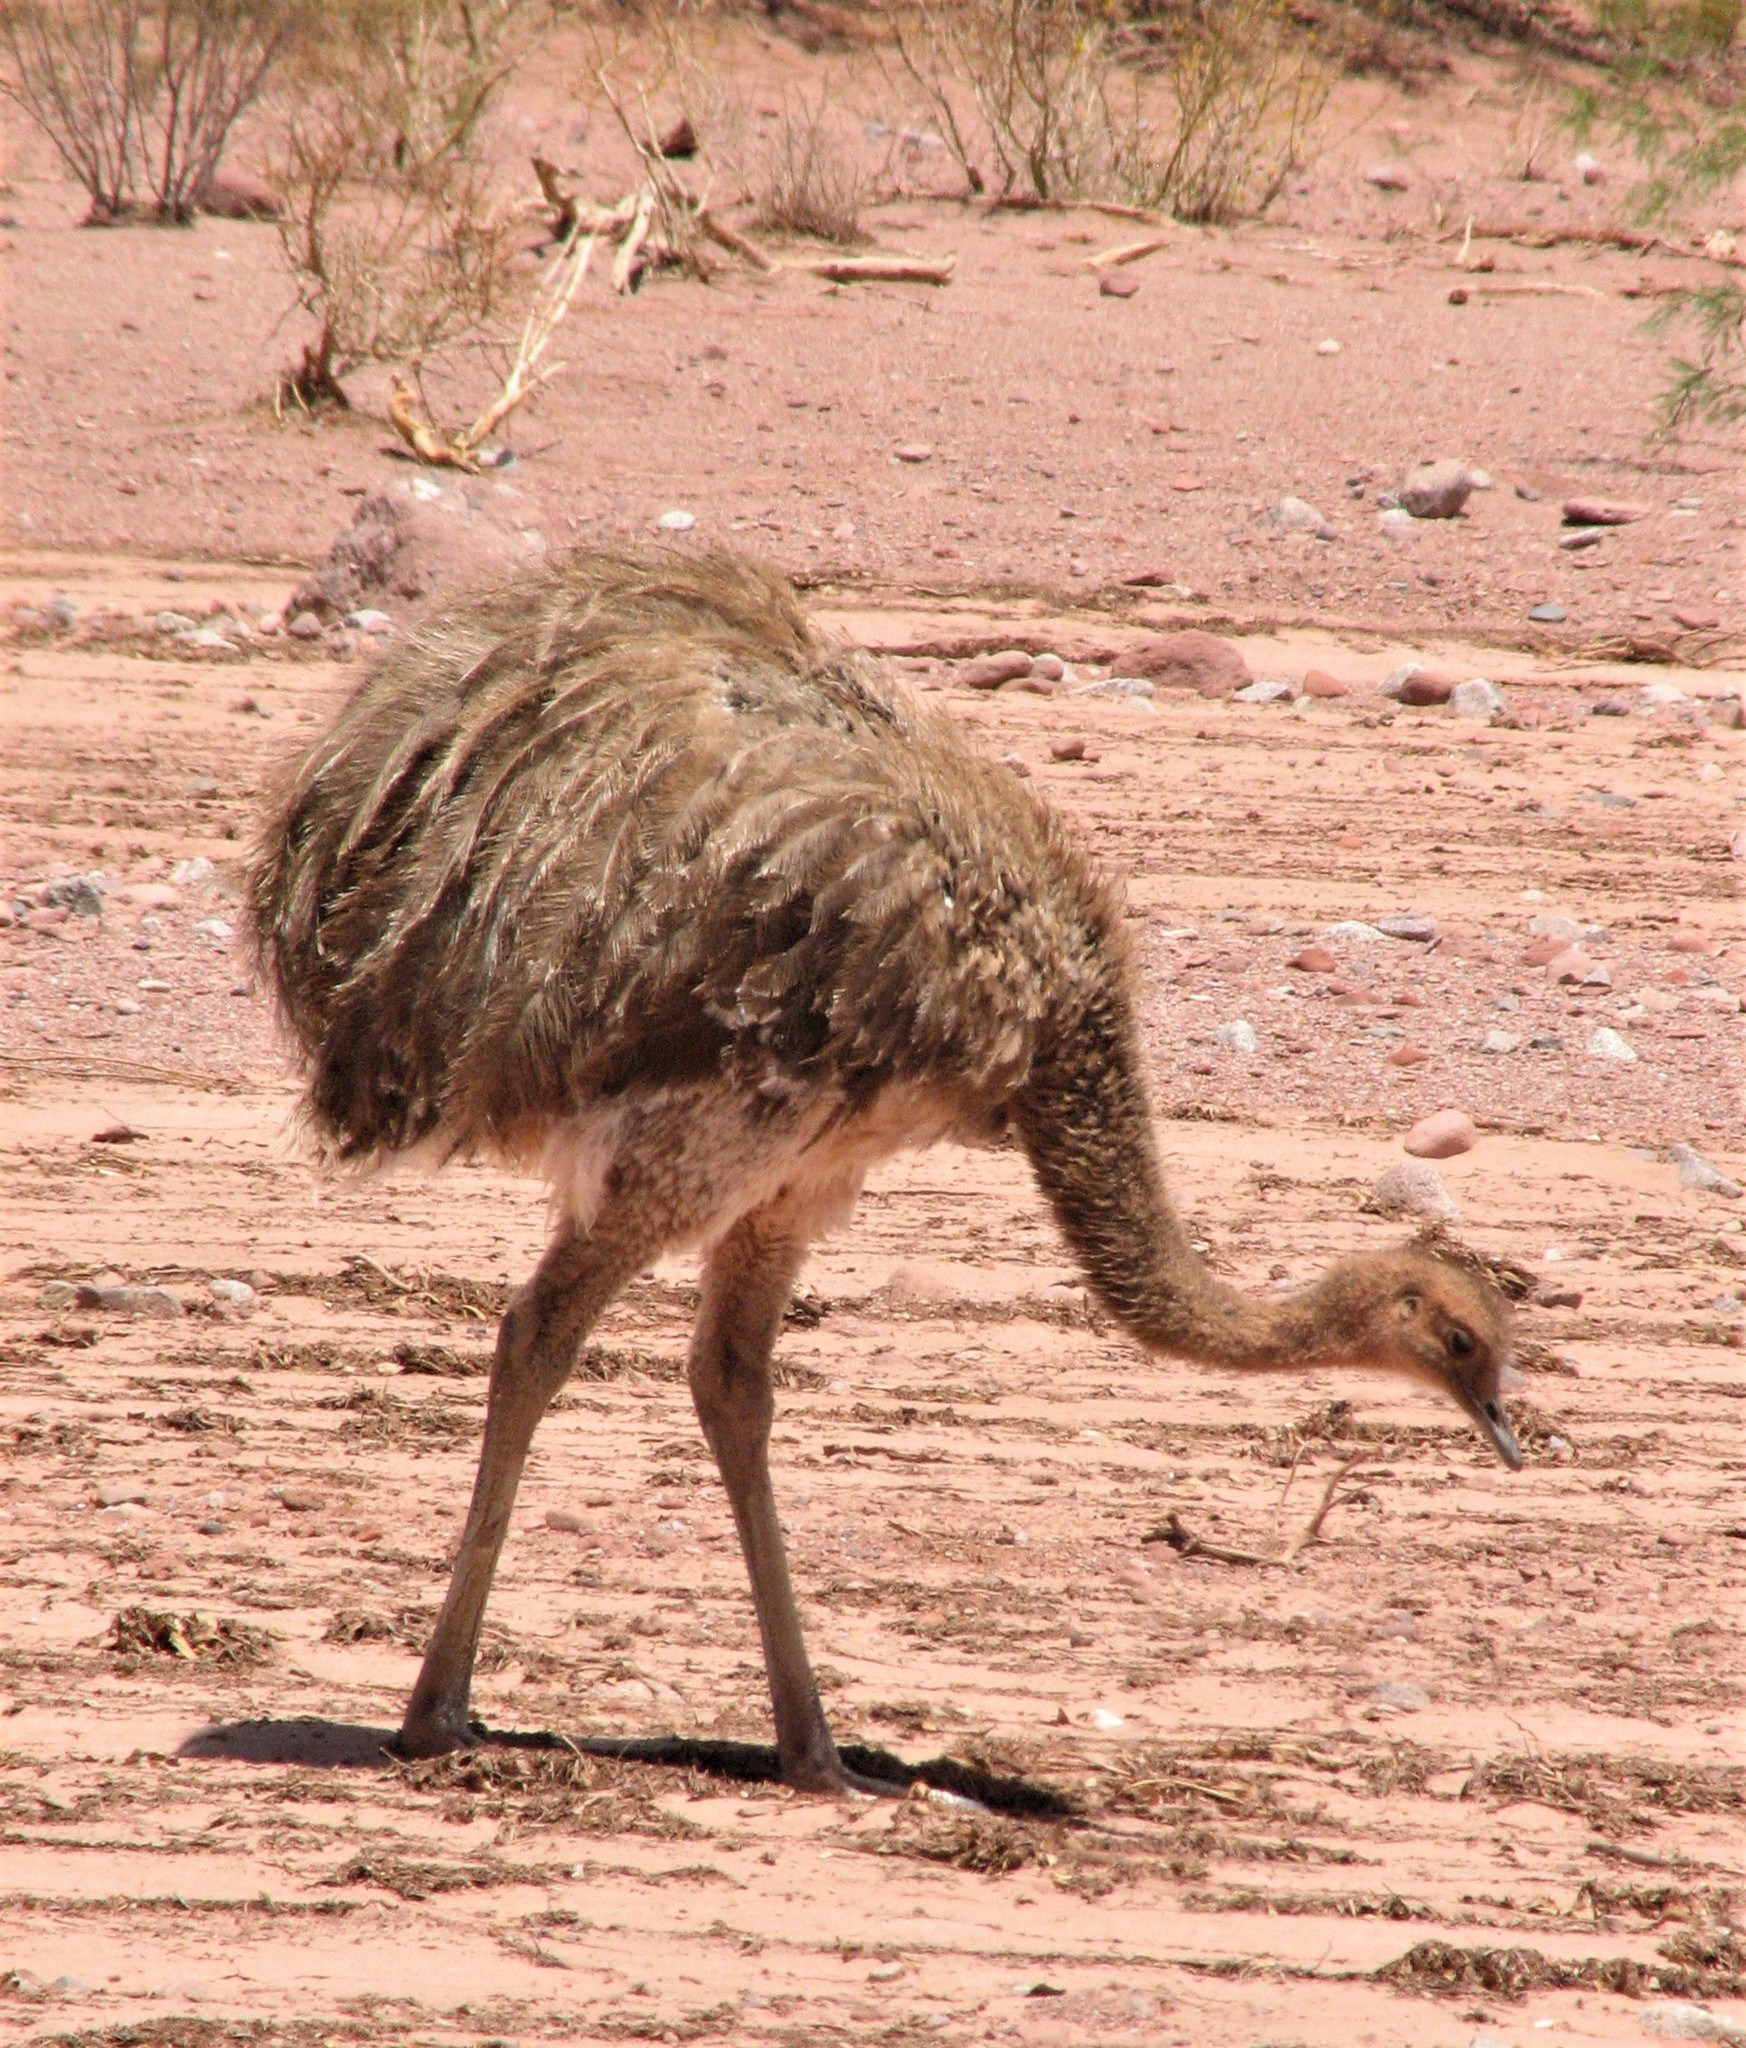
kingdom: Animalia
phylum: Chordata
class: Aves
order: Rheiformes
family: Rheidae
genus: Rhea
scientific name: Rhea pennata
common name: Lesser rhea
